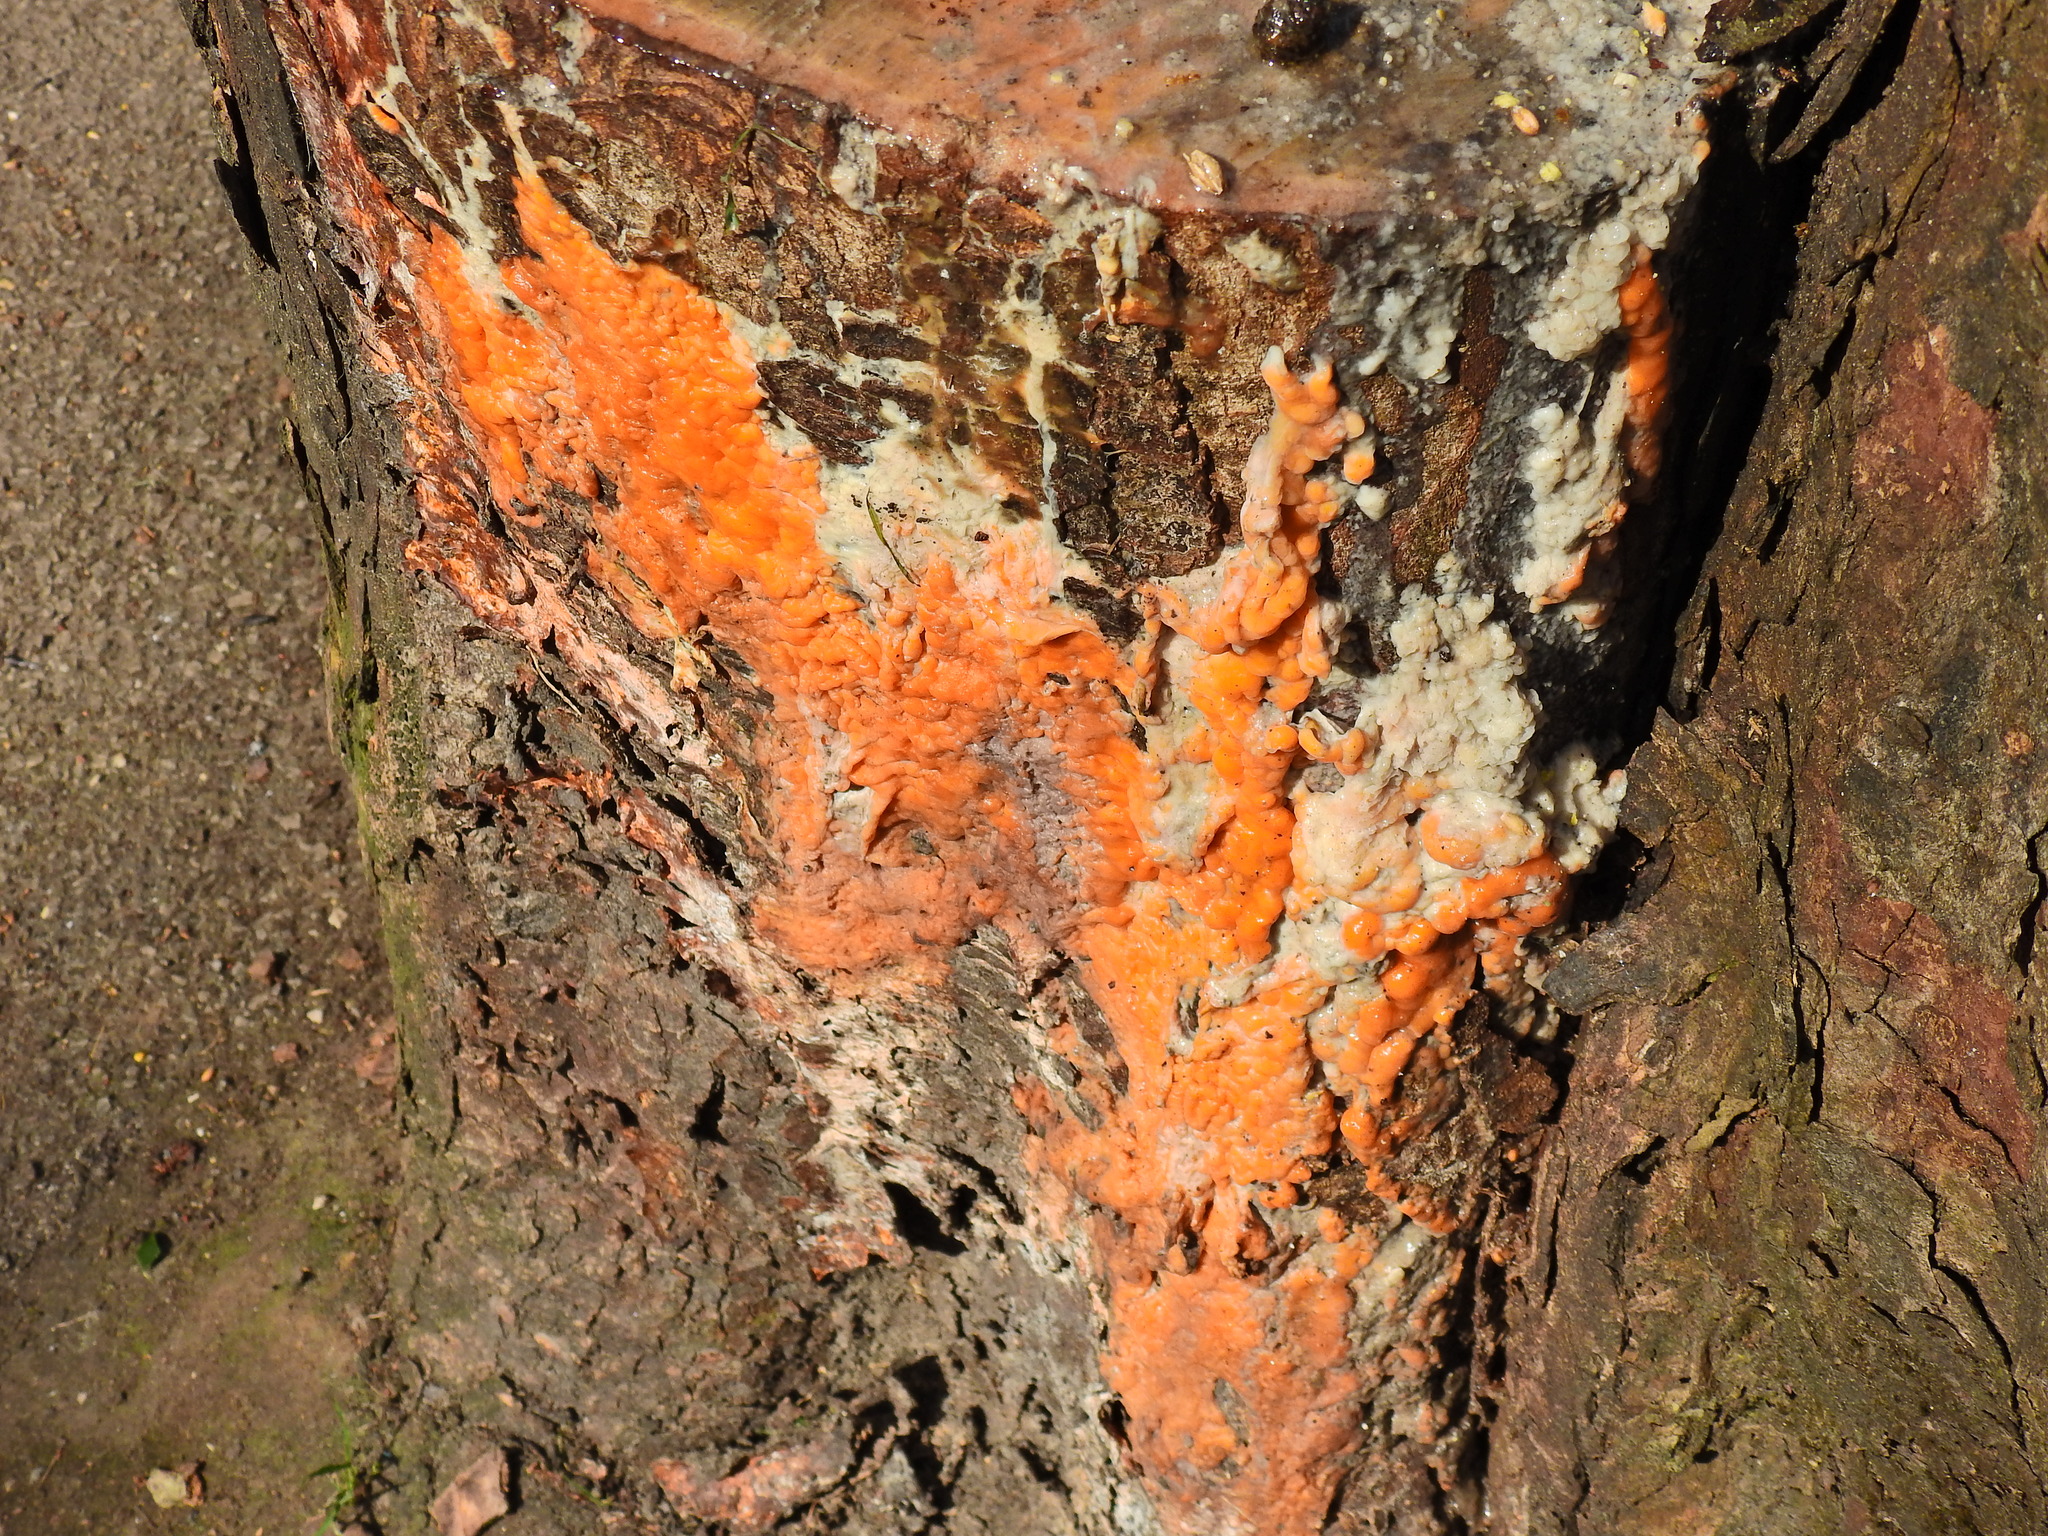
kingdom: Fungi
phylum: Ascomycota
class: Sordariomycetes
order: Hypocreales
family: Nectriaceae
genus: Fusicolla
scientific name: Fusicolla merismoides
